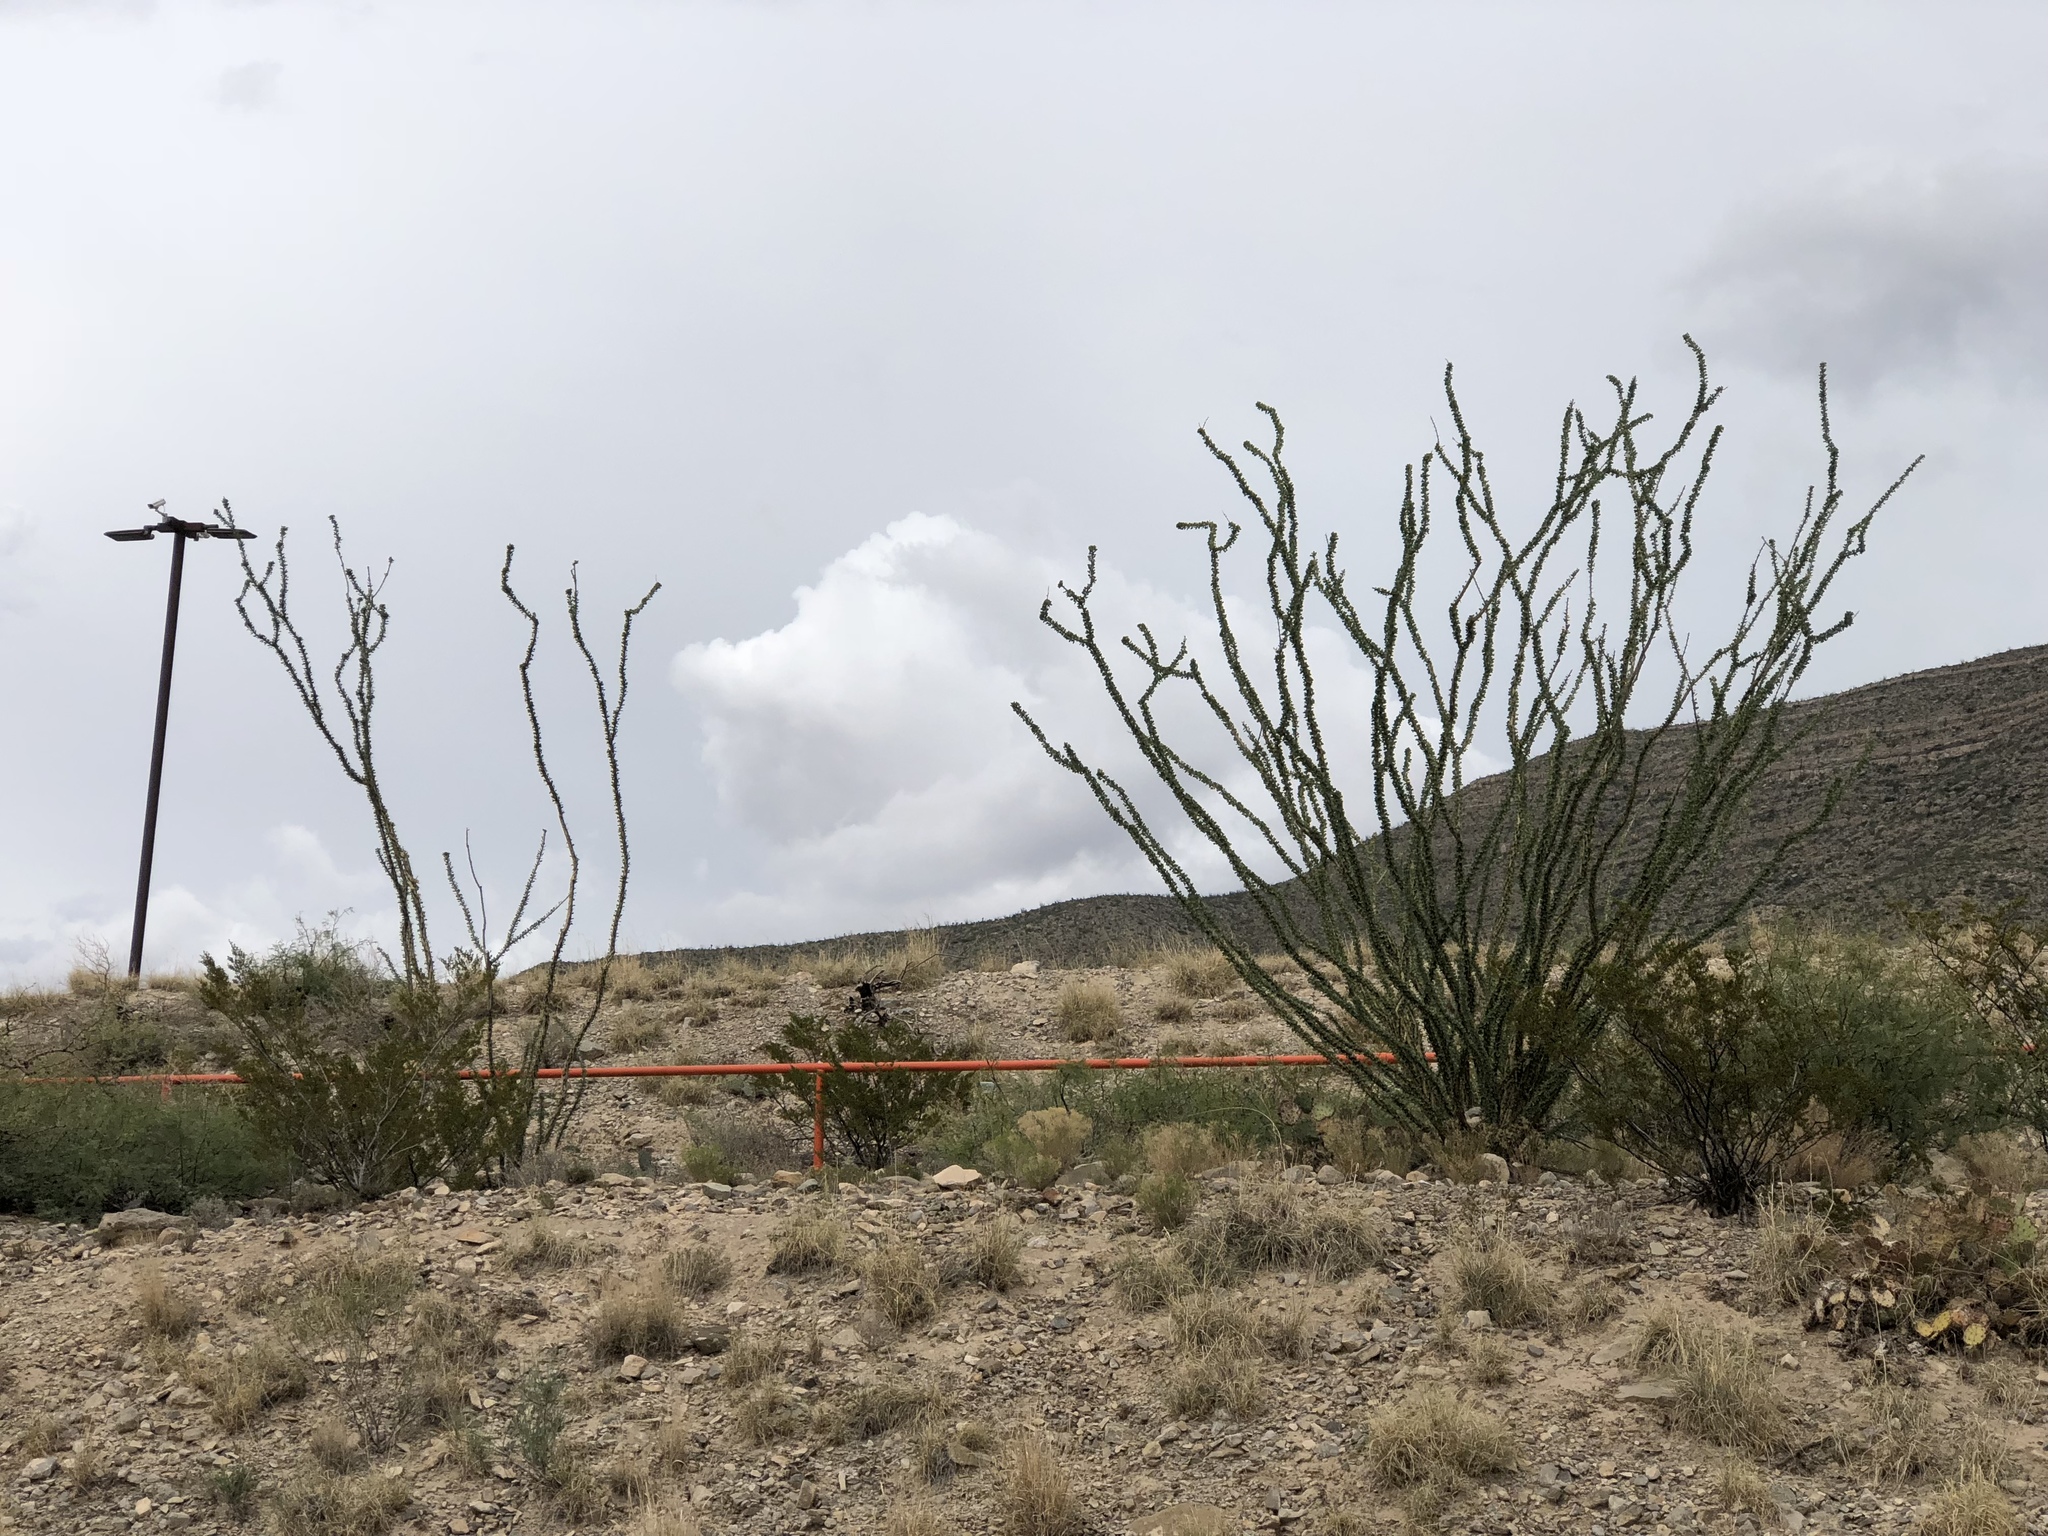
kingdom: Plantae
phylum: Tracheophyta
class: Magnoliopsida
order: Ericales
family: Fouquieriaceae
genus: Fouquieria
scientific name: Fouquieria splendens
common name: Vine-cactus
